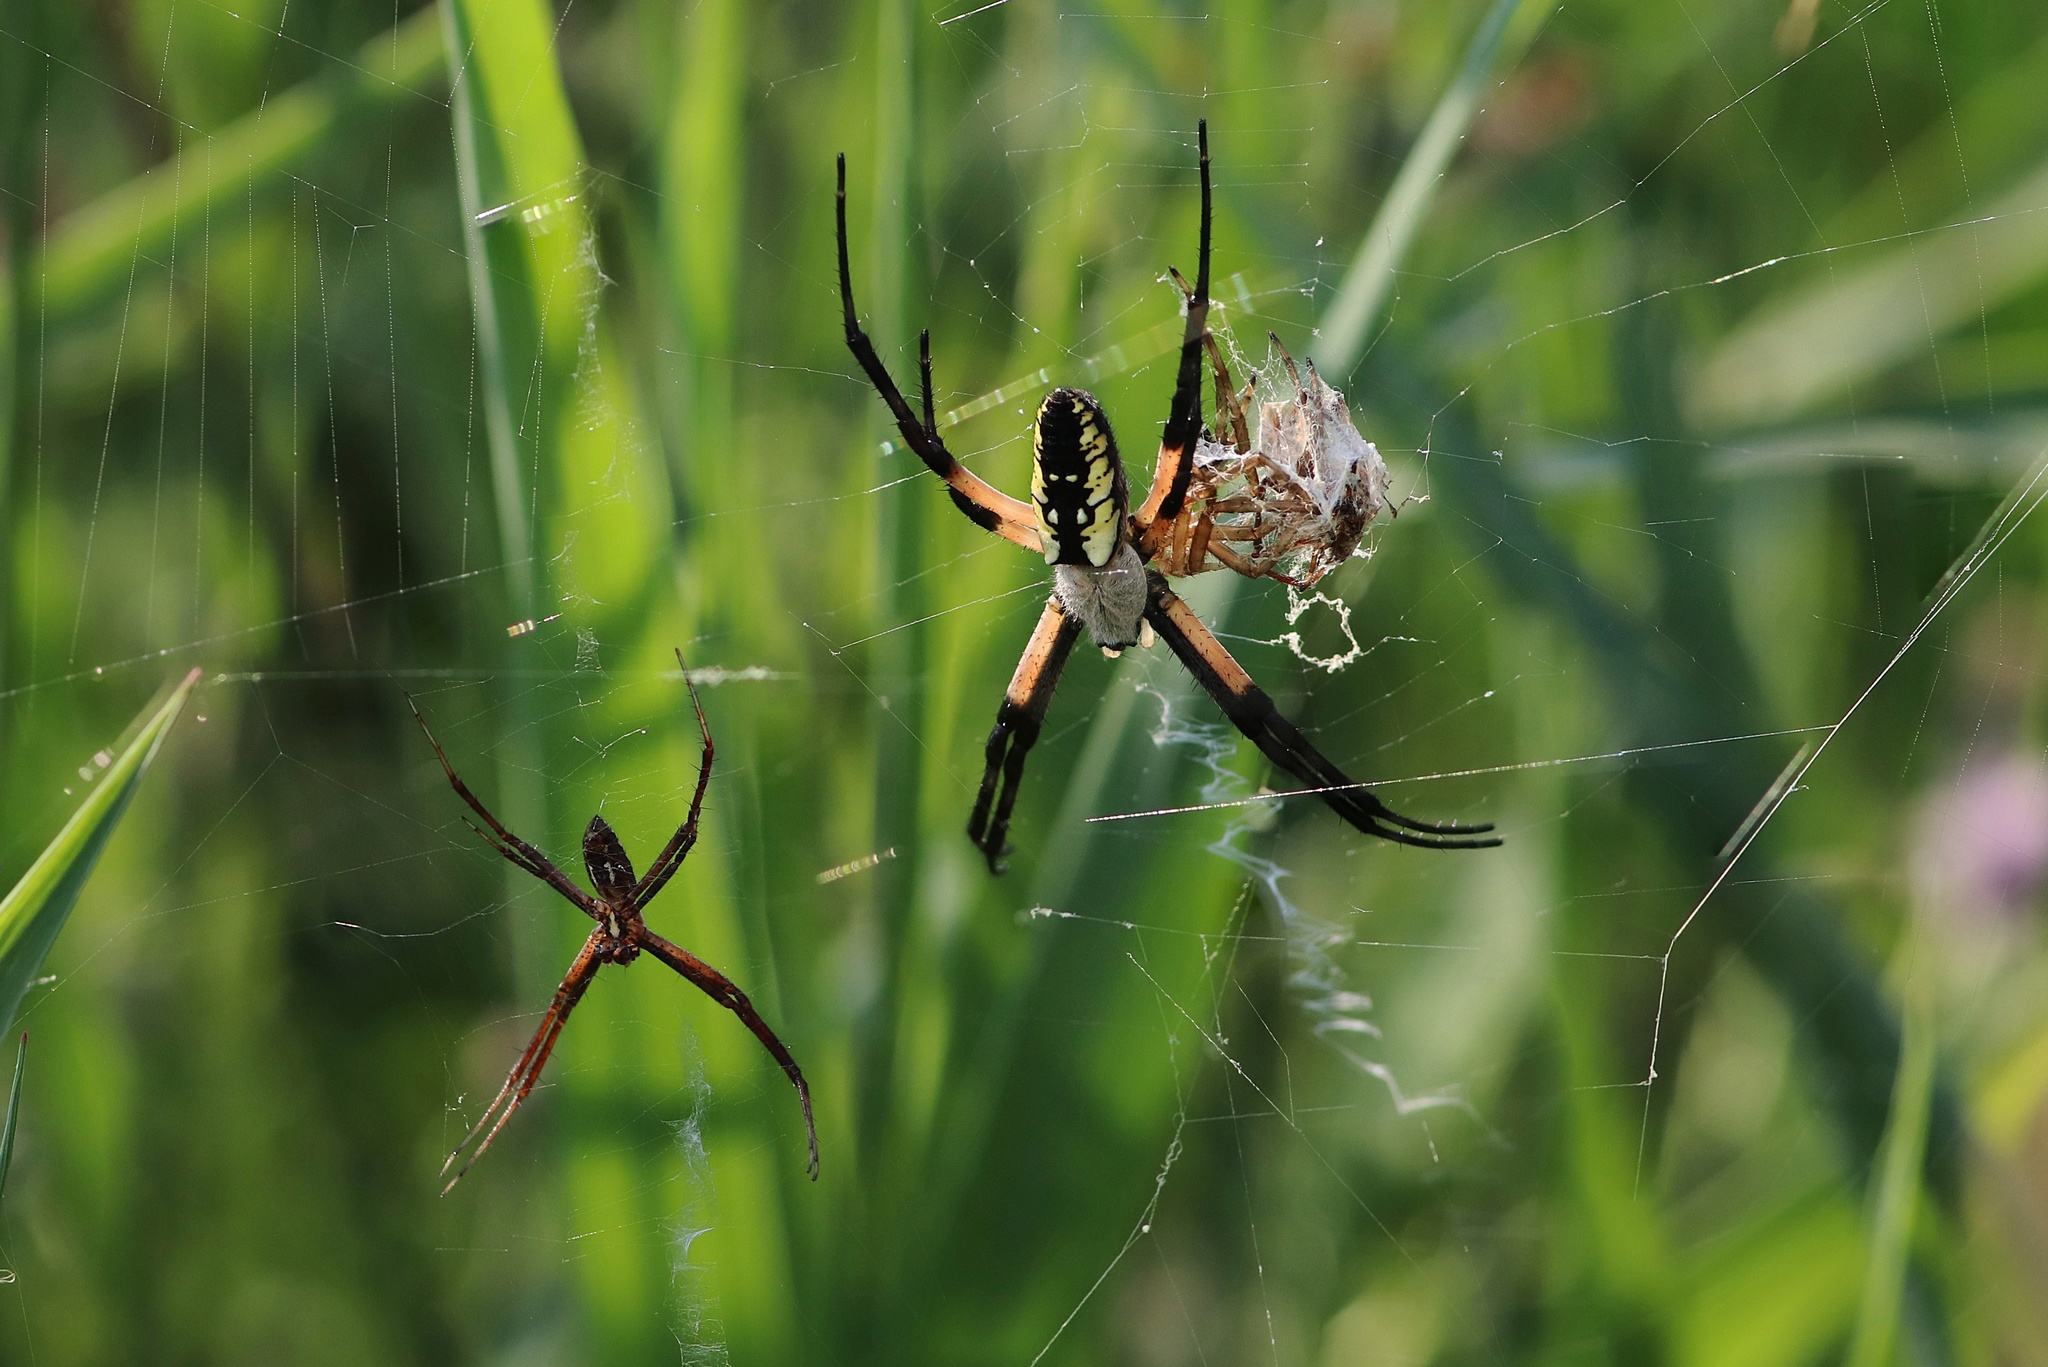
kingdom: Animalia
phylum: Arthropoda
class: Arachnida
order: Araneae
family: Araneidae
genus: Argiope
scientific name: Argiope aurantia
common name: Orb weavers
